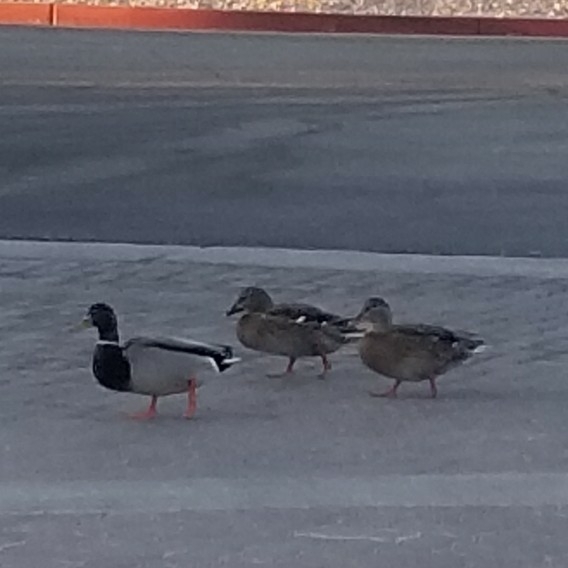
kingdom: Animalia
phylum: Chordata
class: Aves
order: Anseriformes
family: Anatidae
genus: Anas
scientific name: Anas platyrhynchos
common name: Mallard
